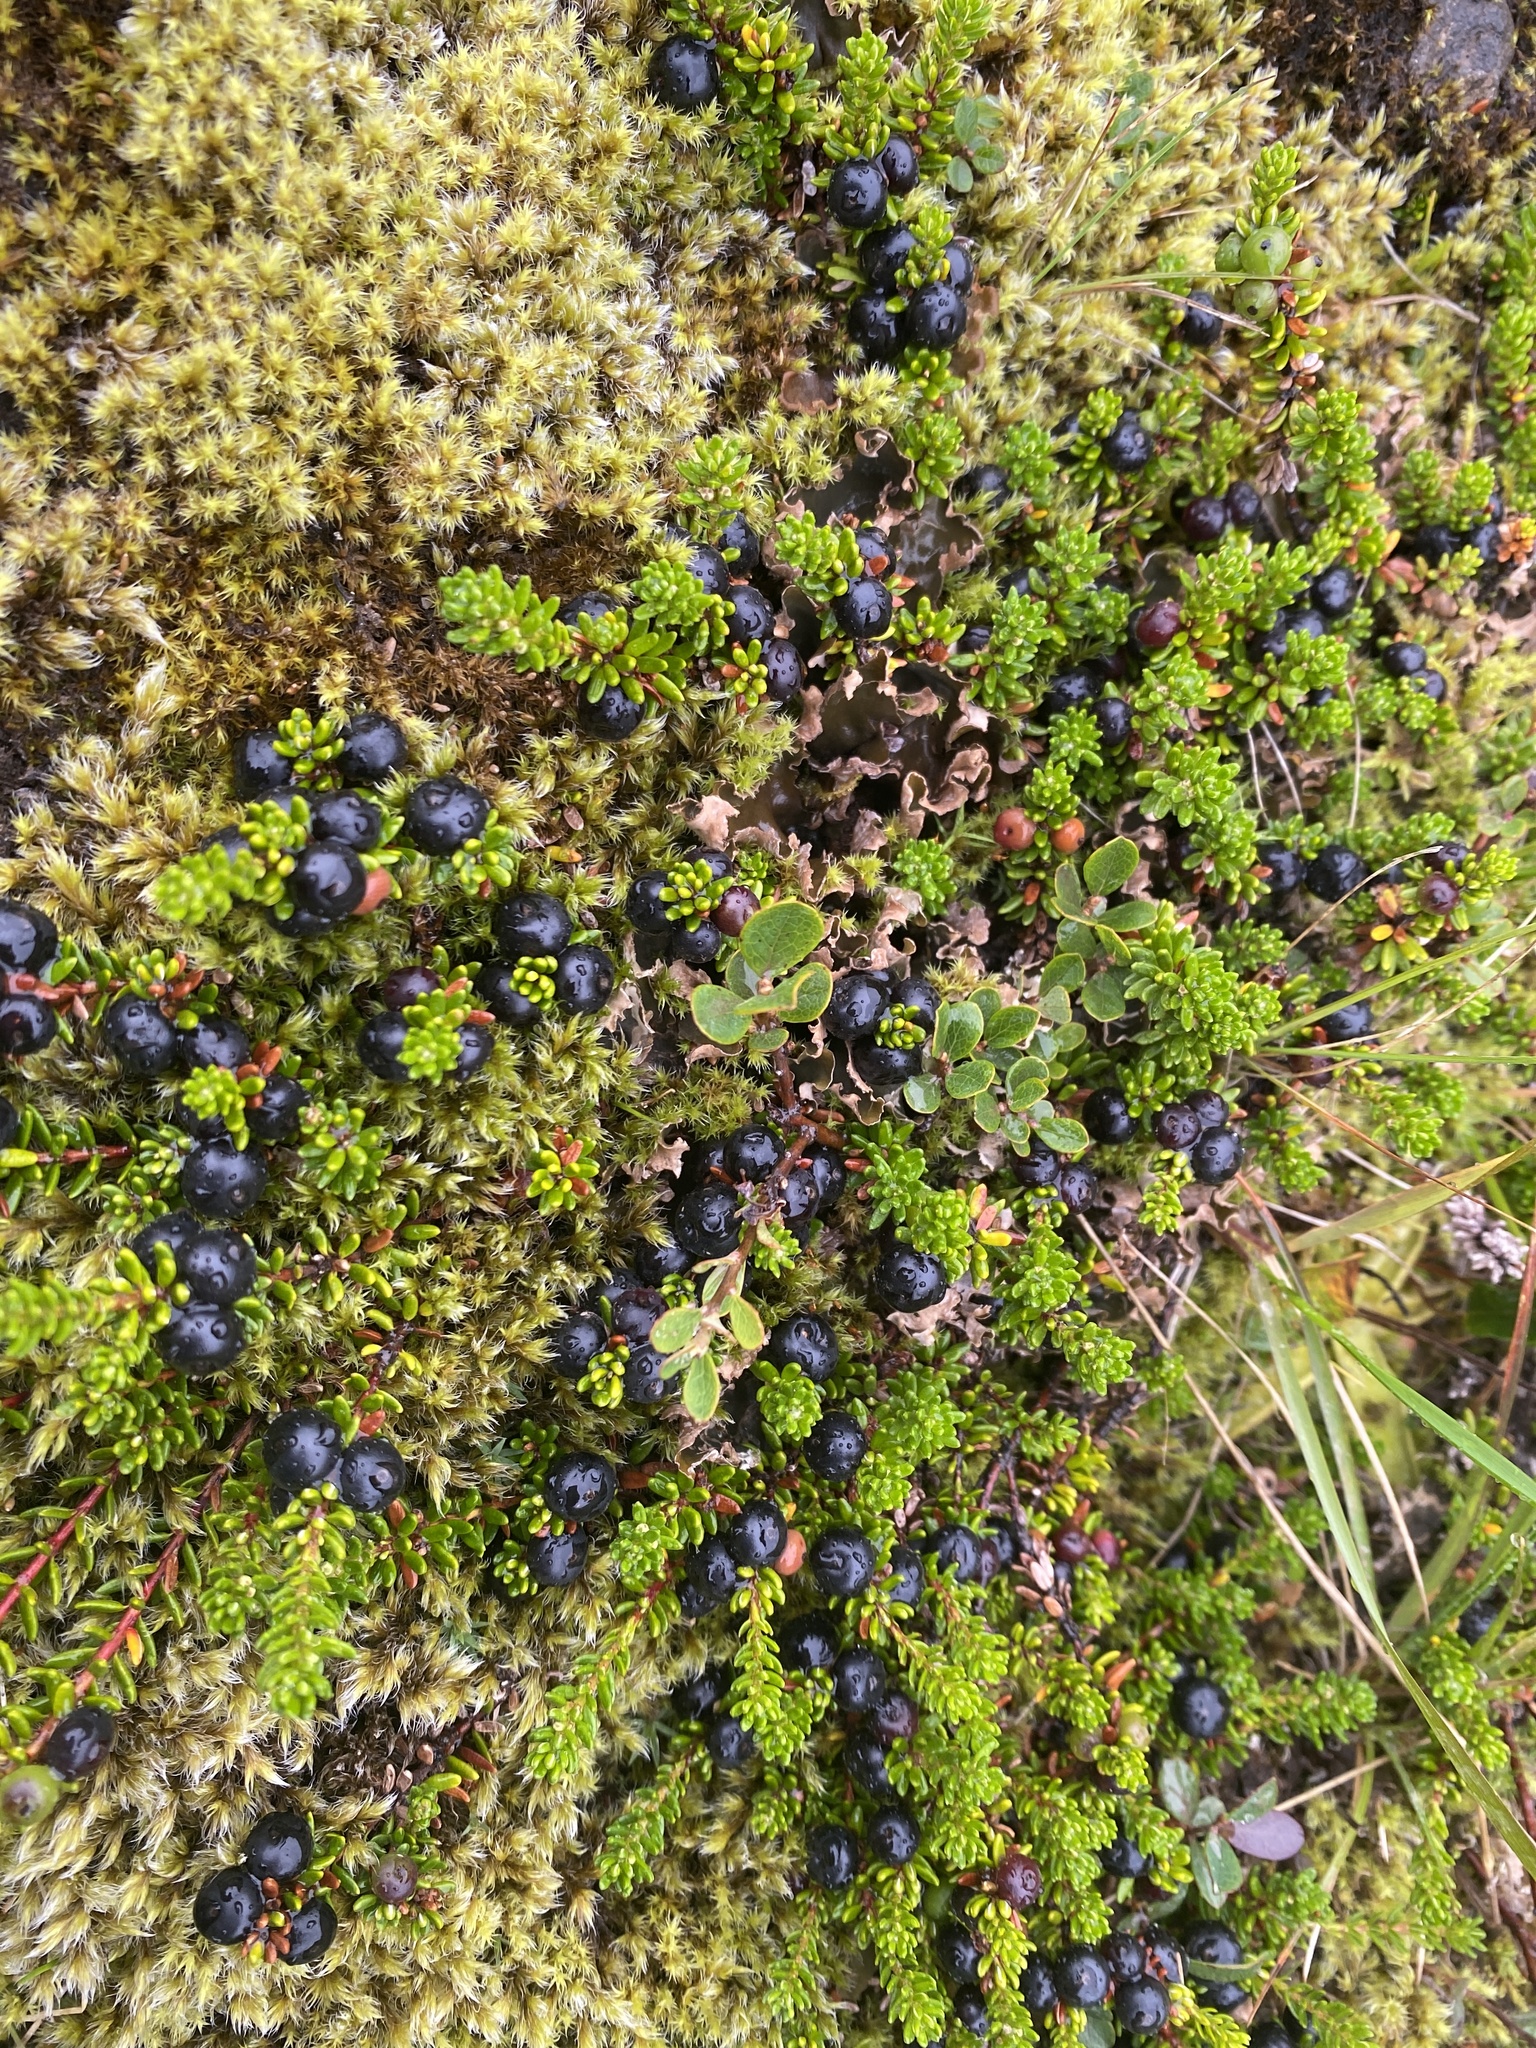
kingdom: Plantae
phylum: Tracheophyta
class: Magnoliopsida
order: Ericales
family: Ericaceae
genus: Empetrum
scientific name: Empetrum nigrum
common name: Black crowberry
